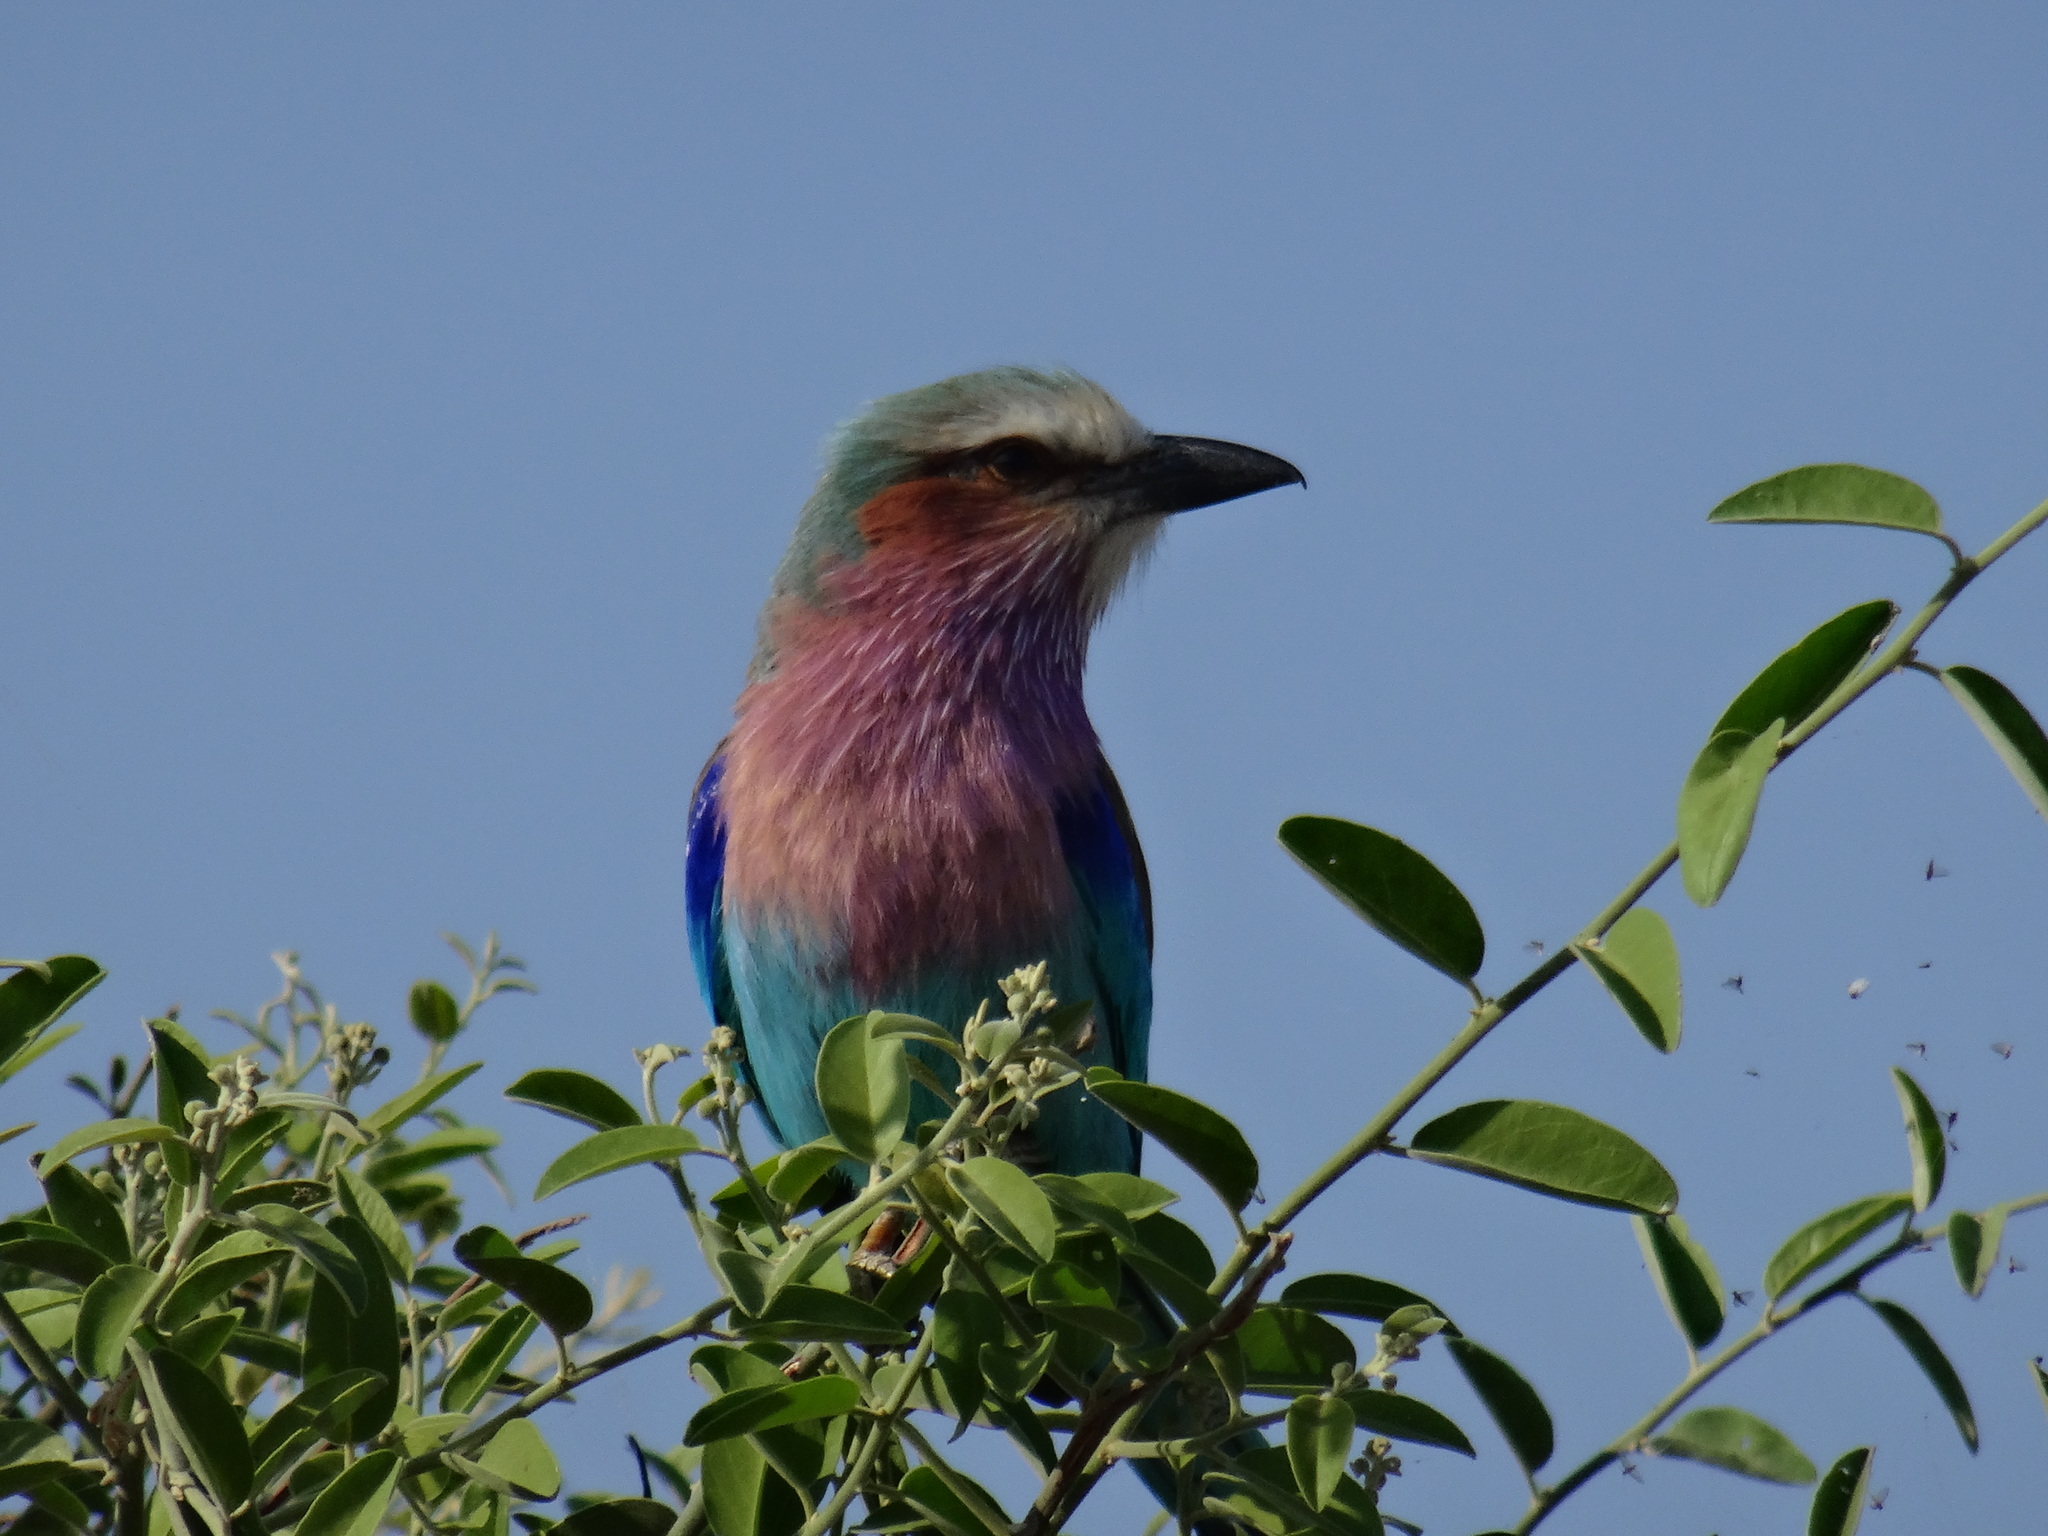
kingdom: Animalia
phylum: Chordata
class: Aves
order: Coraciiformes
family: Coraciidae
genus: Coracias
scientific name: Coracias caudatus
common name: Lilac-breasted roller
